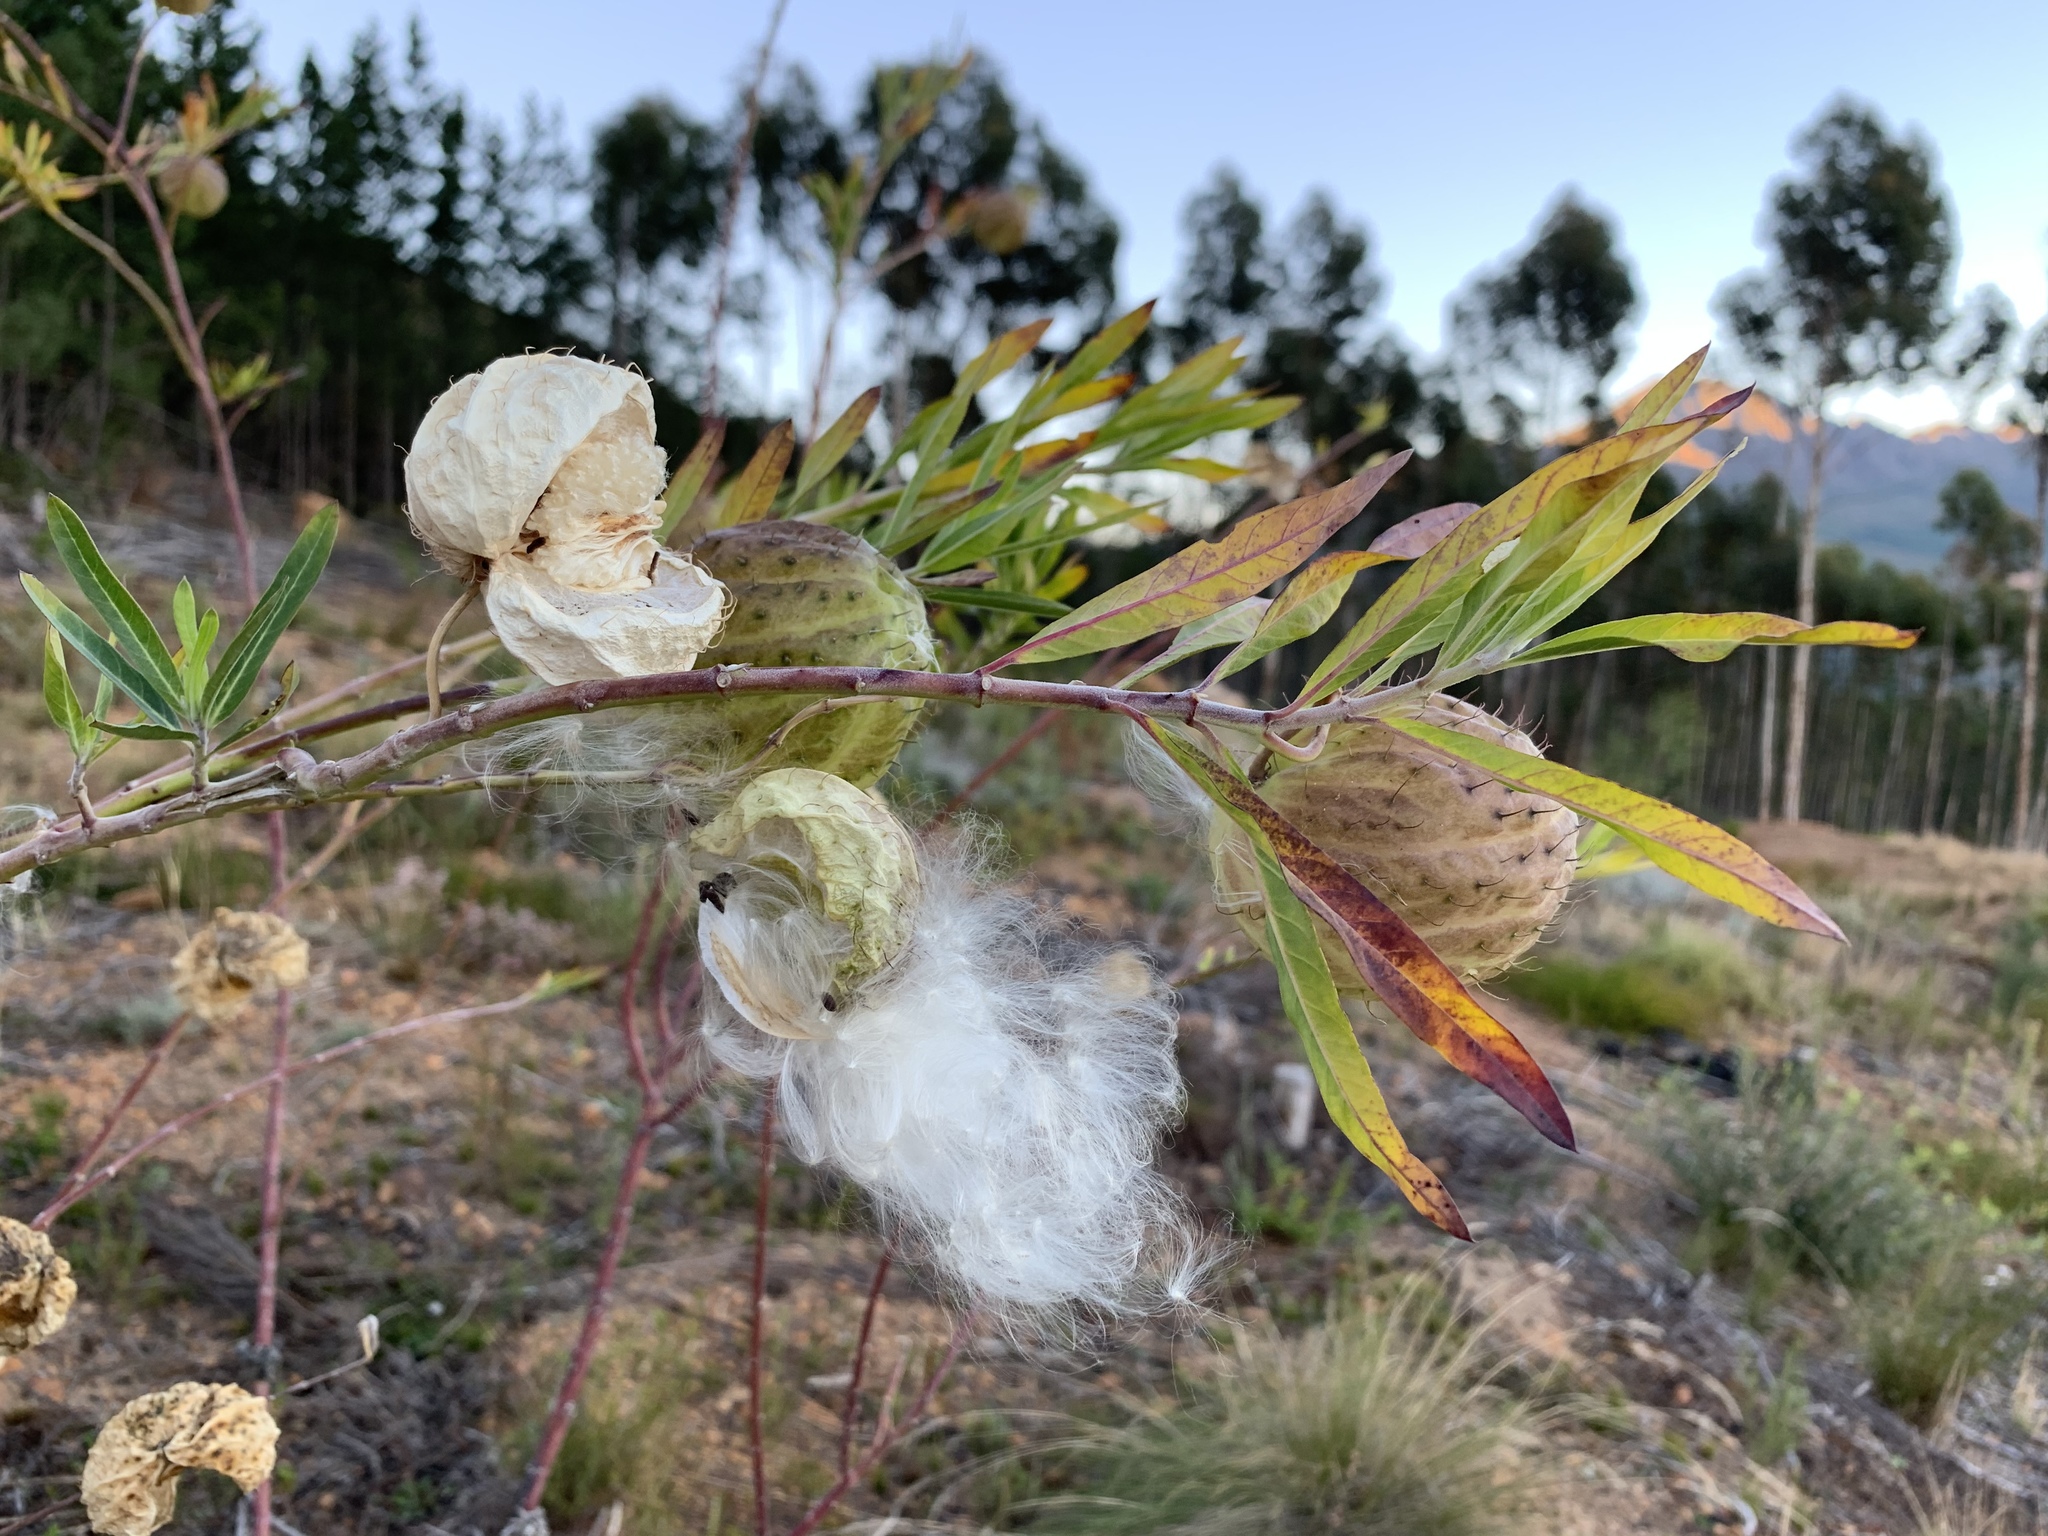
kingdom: Plantae
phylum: Tracheophyta
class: Magnoliopsida
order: Gentianales
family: Apocynaceae
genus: Gomphocarpus
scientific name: Gomphocarpus physocarpus
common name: Balloon cotton bush
